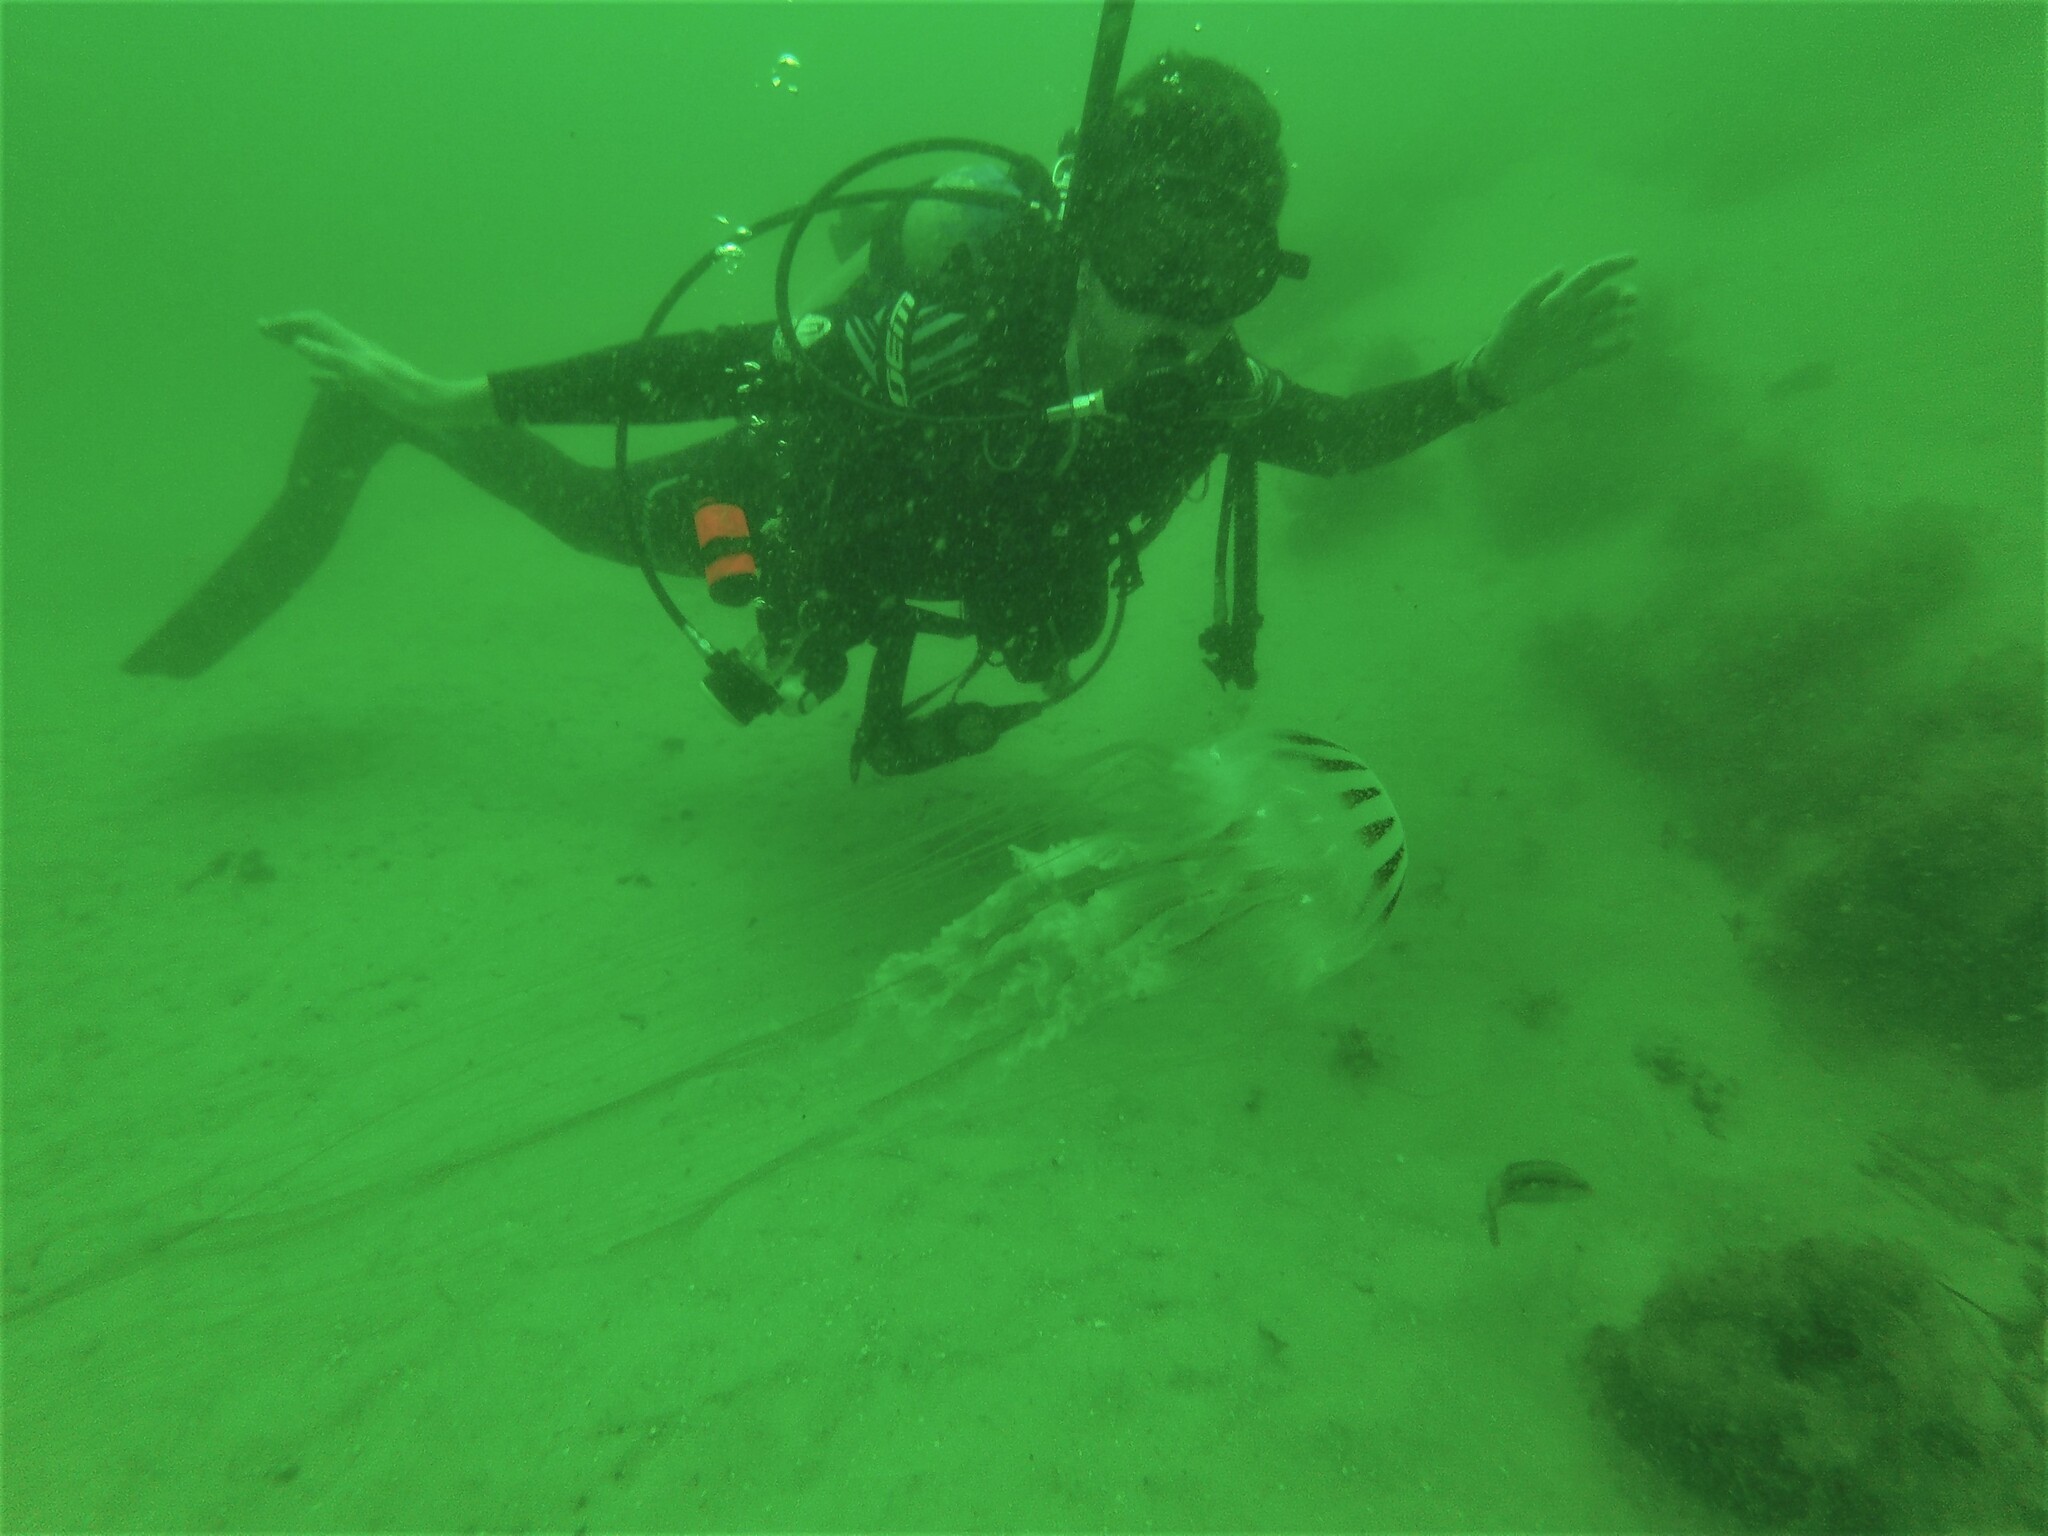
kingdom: Animalia
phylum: Cnidaria
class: Scyphozoa
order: Semaeostomeae
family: Pelagiidae
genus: Chrysaora
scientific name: Chrysaora quinquecirrha
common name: Atlantic sea nettle
